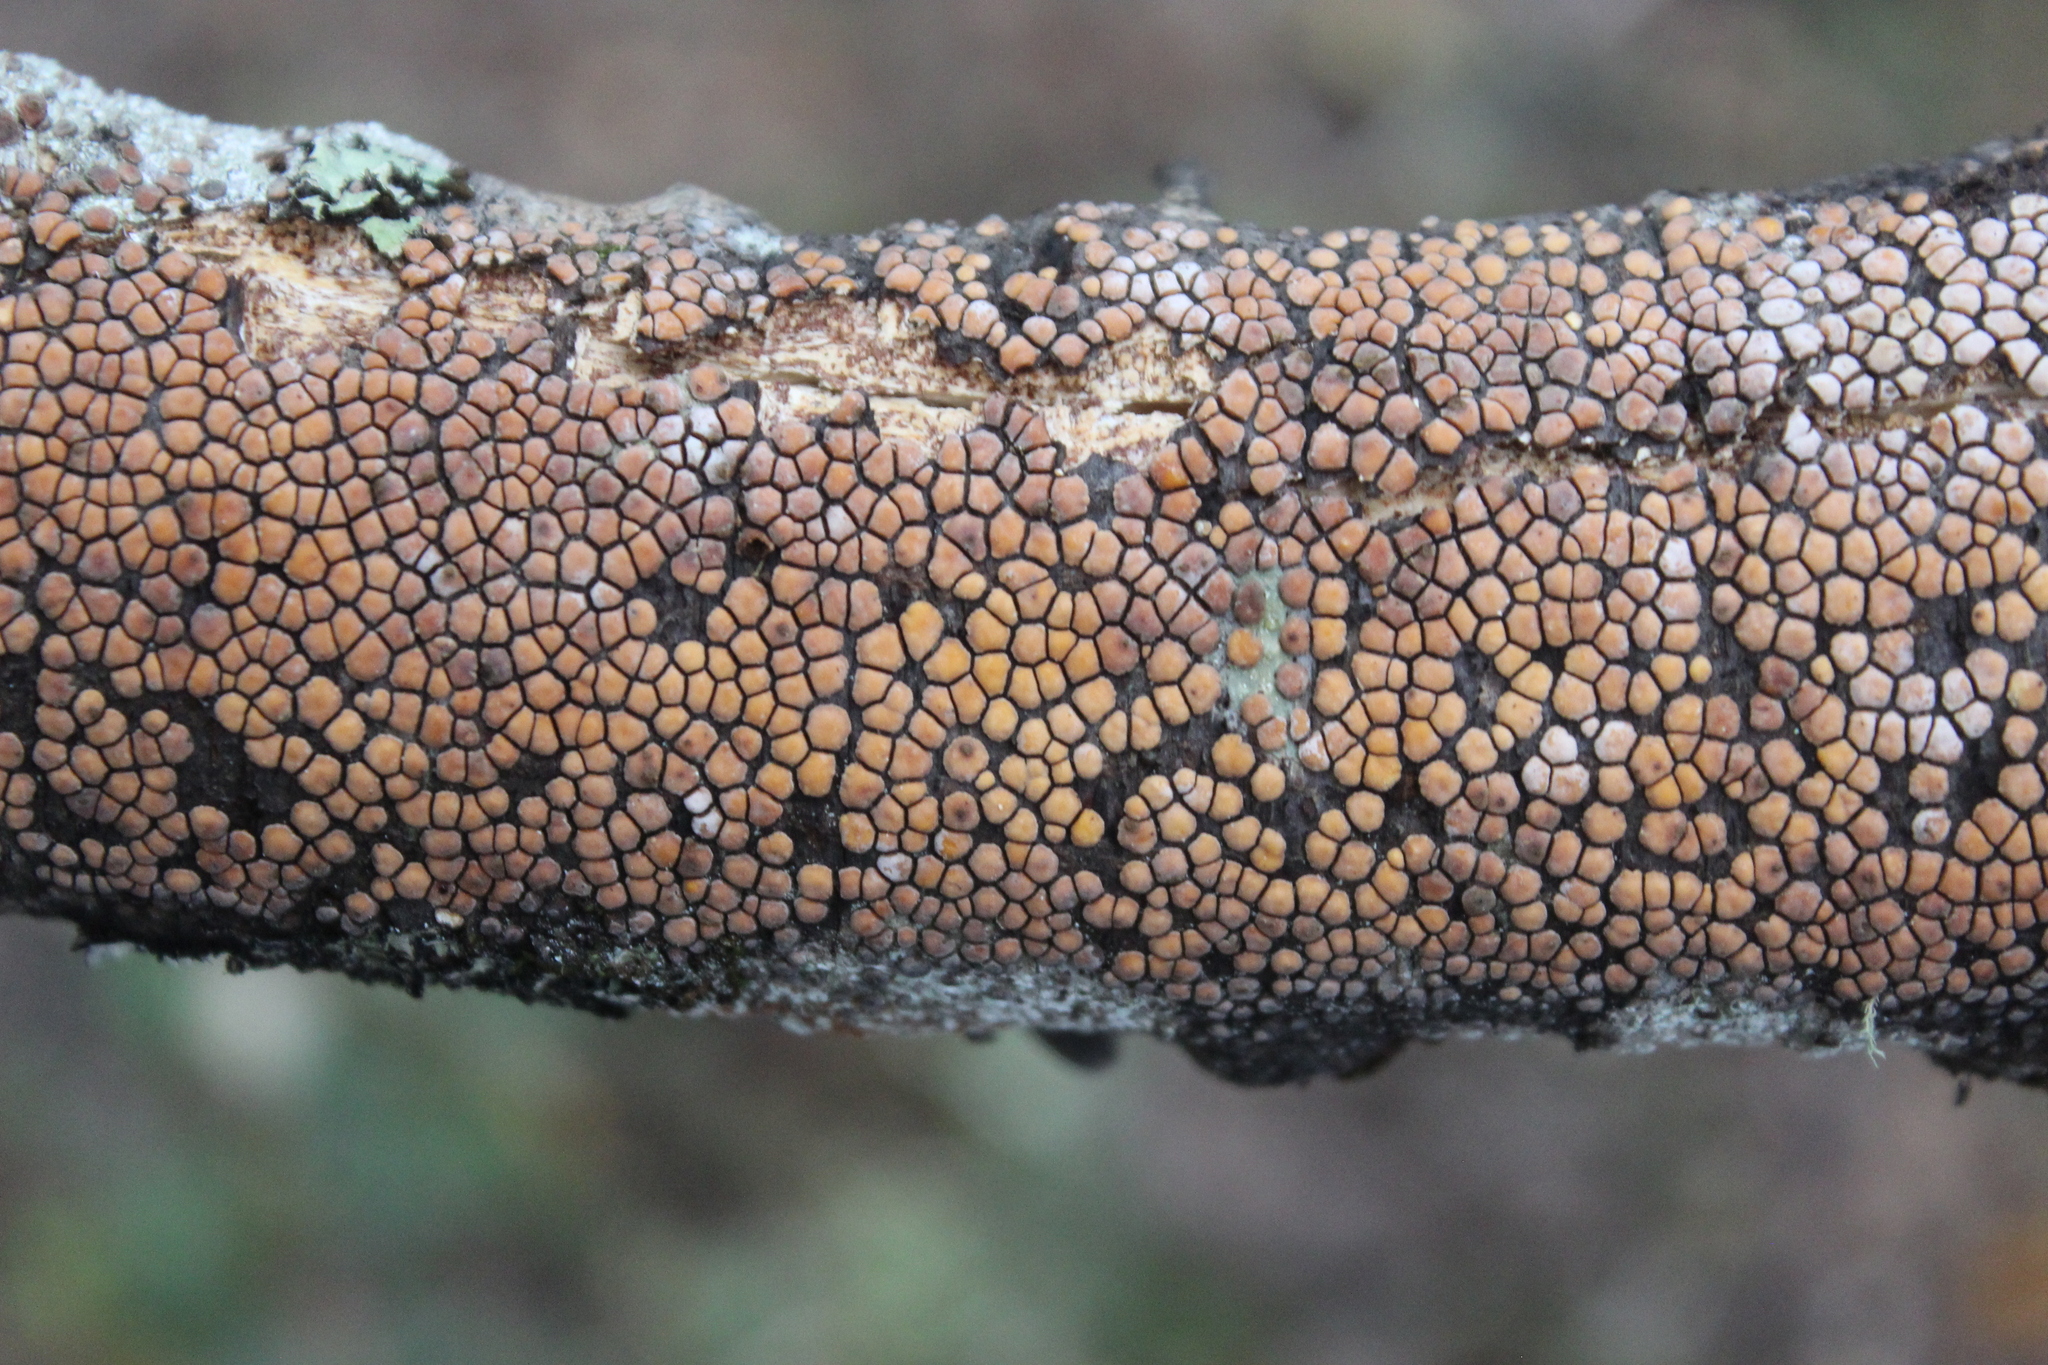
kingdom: Fungi
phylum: Basidiomycota
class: Agaricomycetes
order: Russulales
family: Stereaceae
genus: Aleurodiscus
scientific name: Aleurodiscus berggrenii
